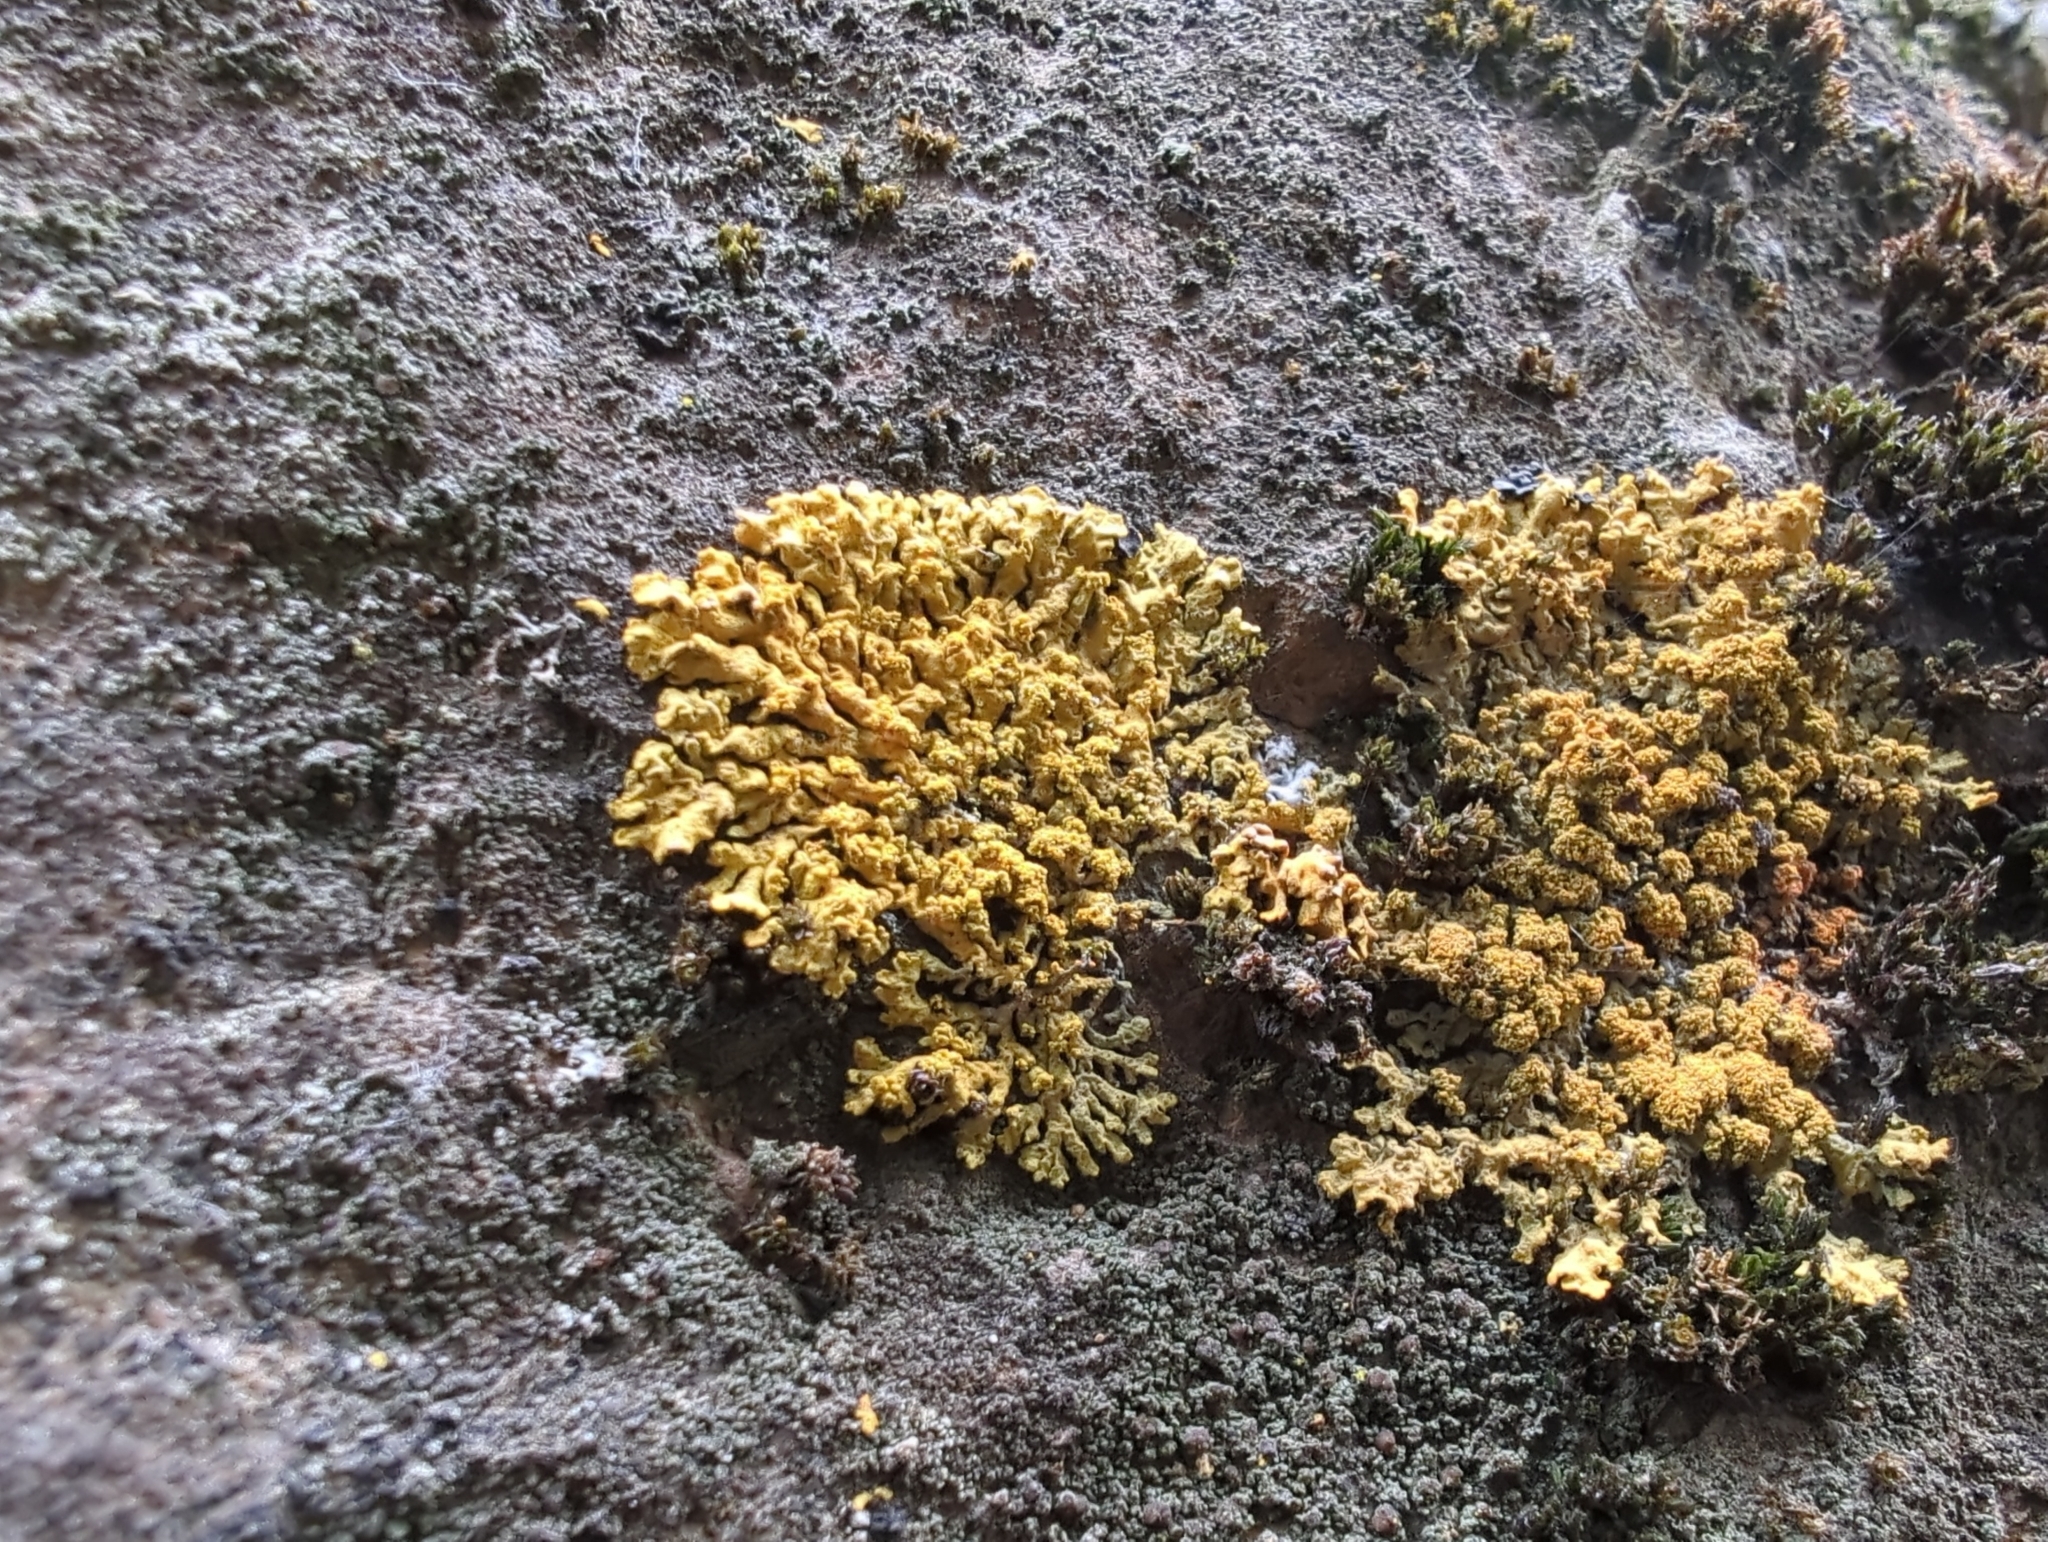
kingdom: Fungi
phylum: Ascomycota
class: Lecanoromycetes
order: Teloschistales
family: Teloschistaceae
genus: Rusavskia
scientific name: Rusavskia sorediata
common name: Sugared sunburst lichen
